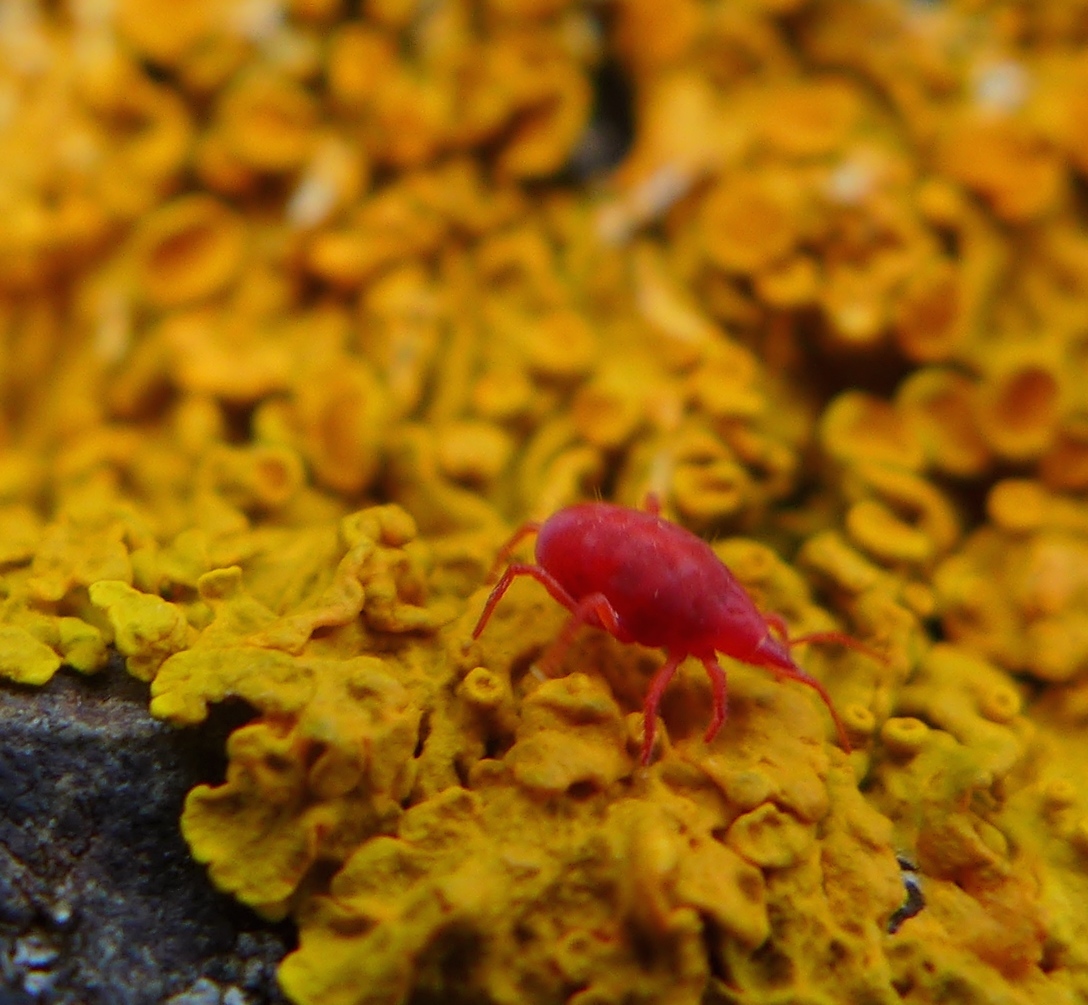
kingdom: Animalia
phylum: Arthropoda
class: Arachnida
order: Trombidiformes
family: Bdellidae
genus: Neomolgus
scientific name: Neomolgus littoralis
